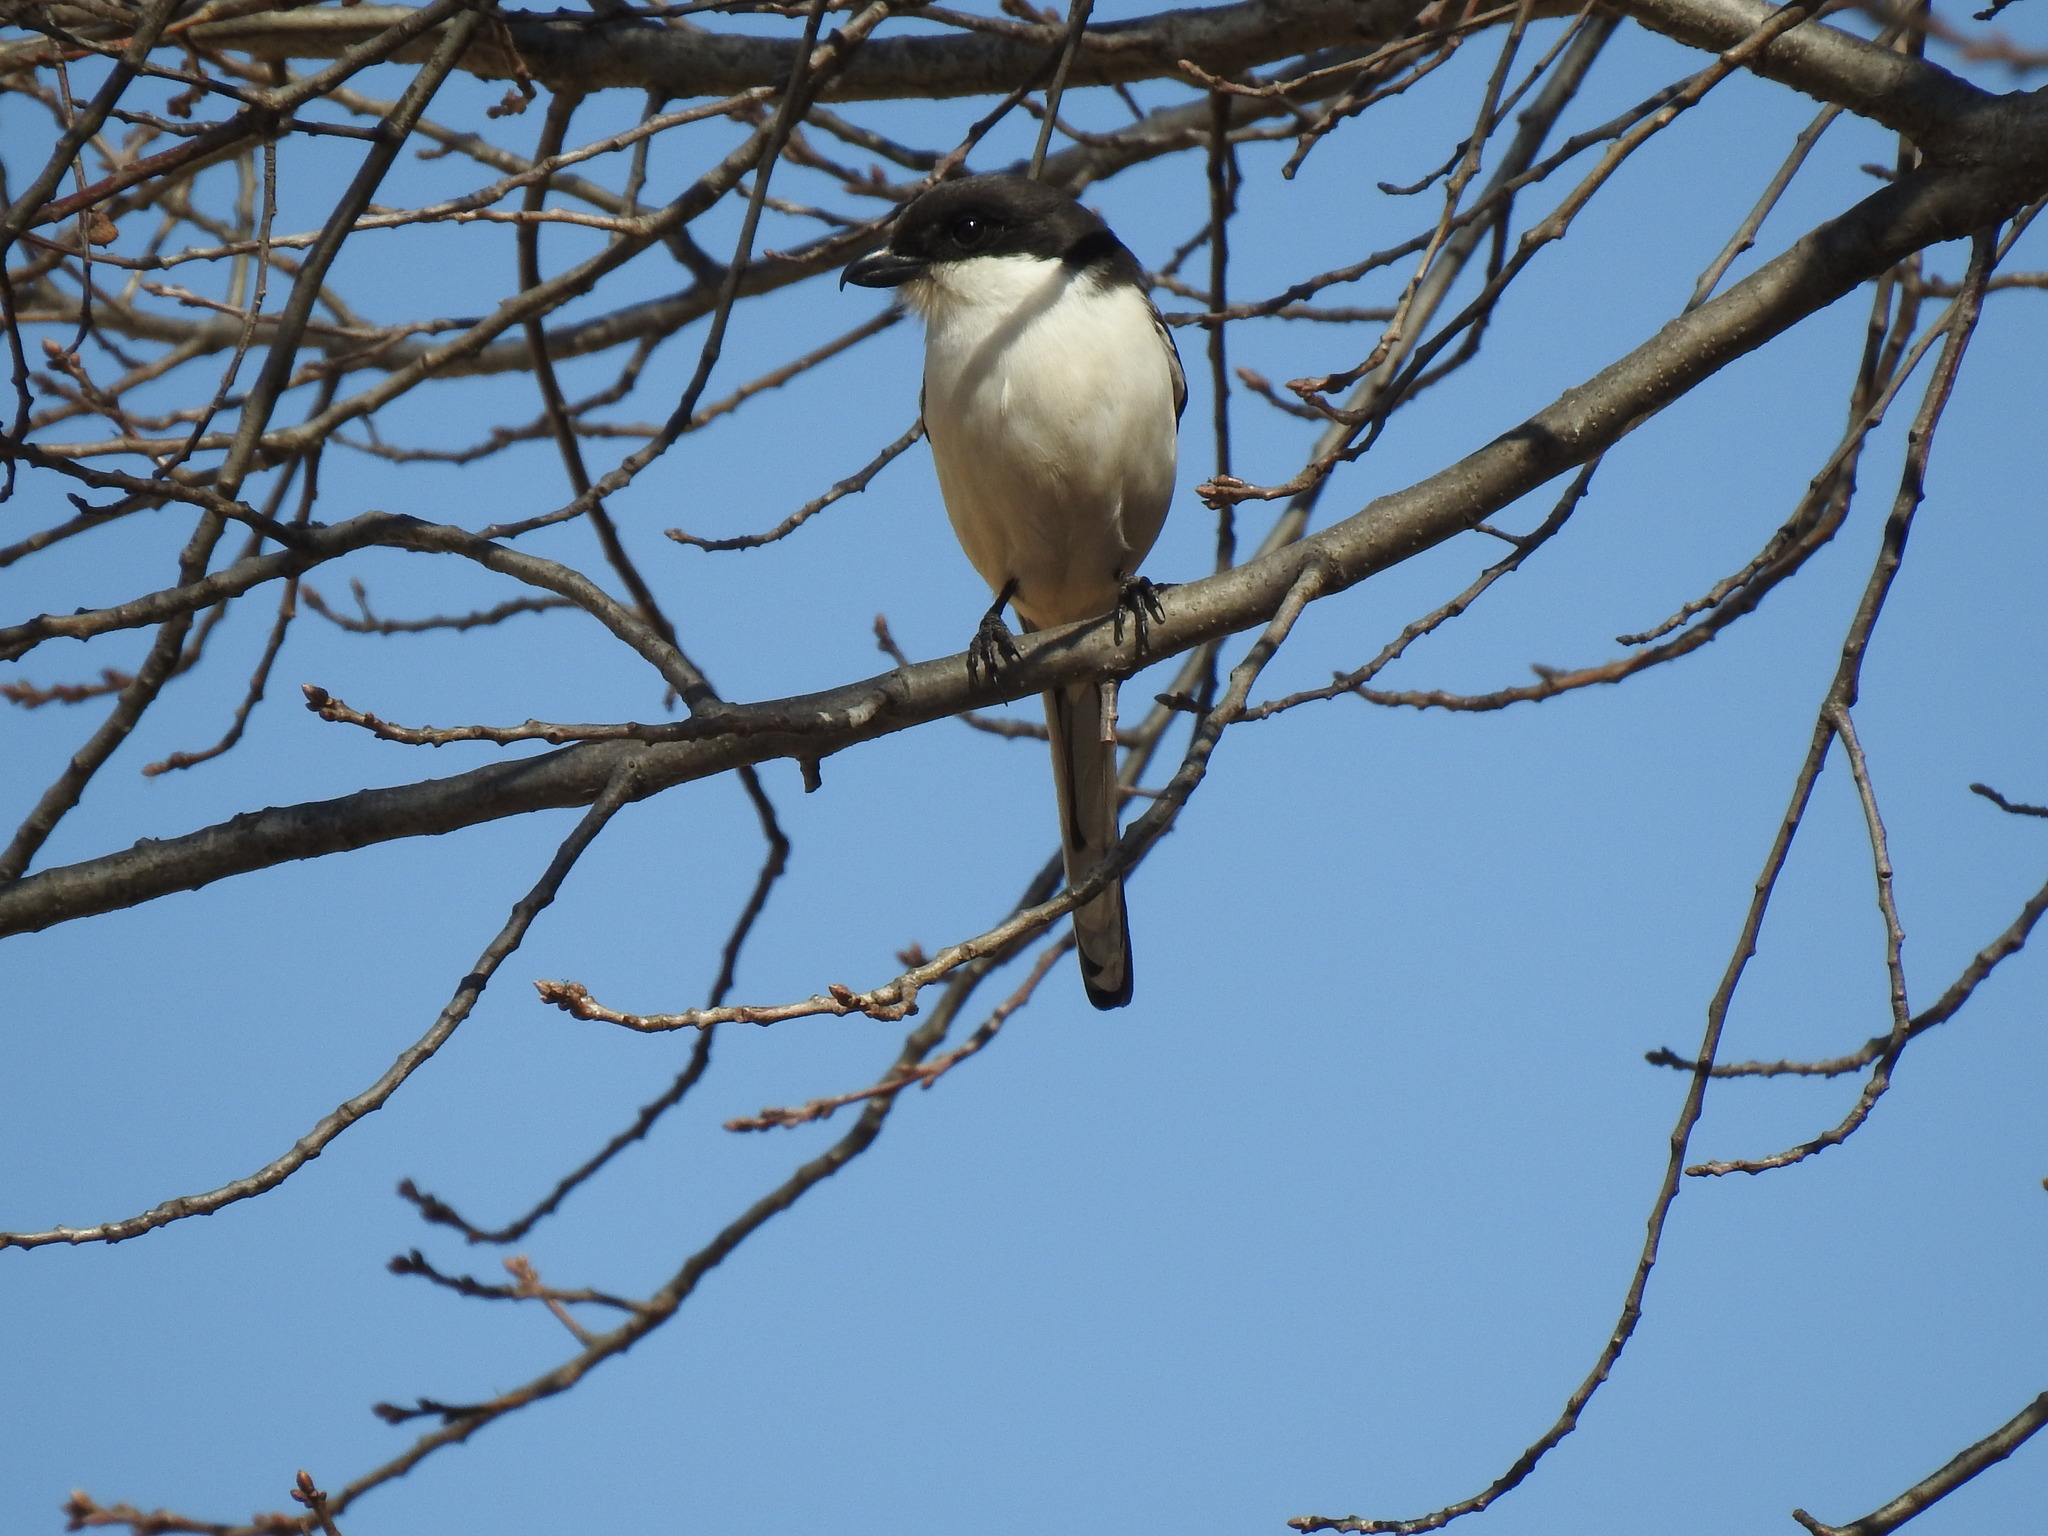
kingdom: Animalia
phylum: Chordata
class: Aves
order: Passeriformes
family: Laniidae
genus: Lanius
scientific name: Lanius collaris
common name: Southern fiscal
